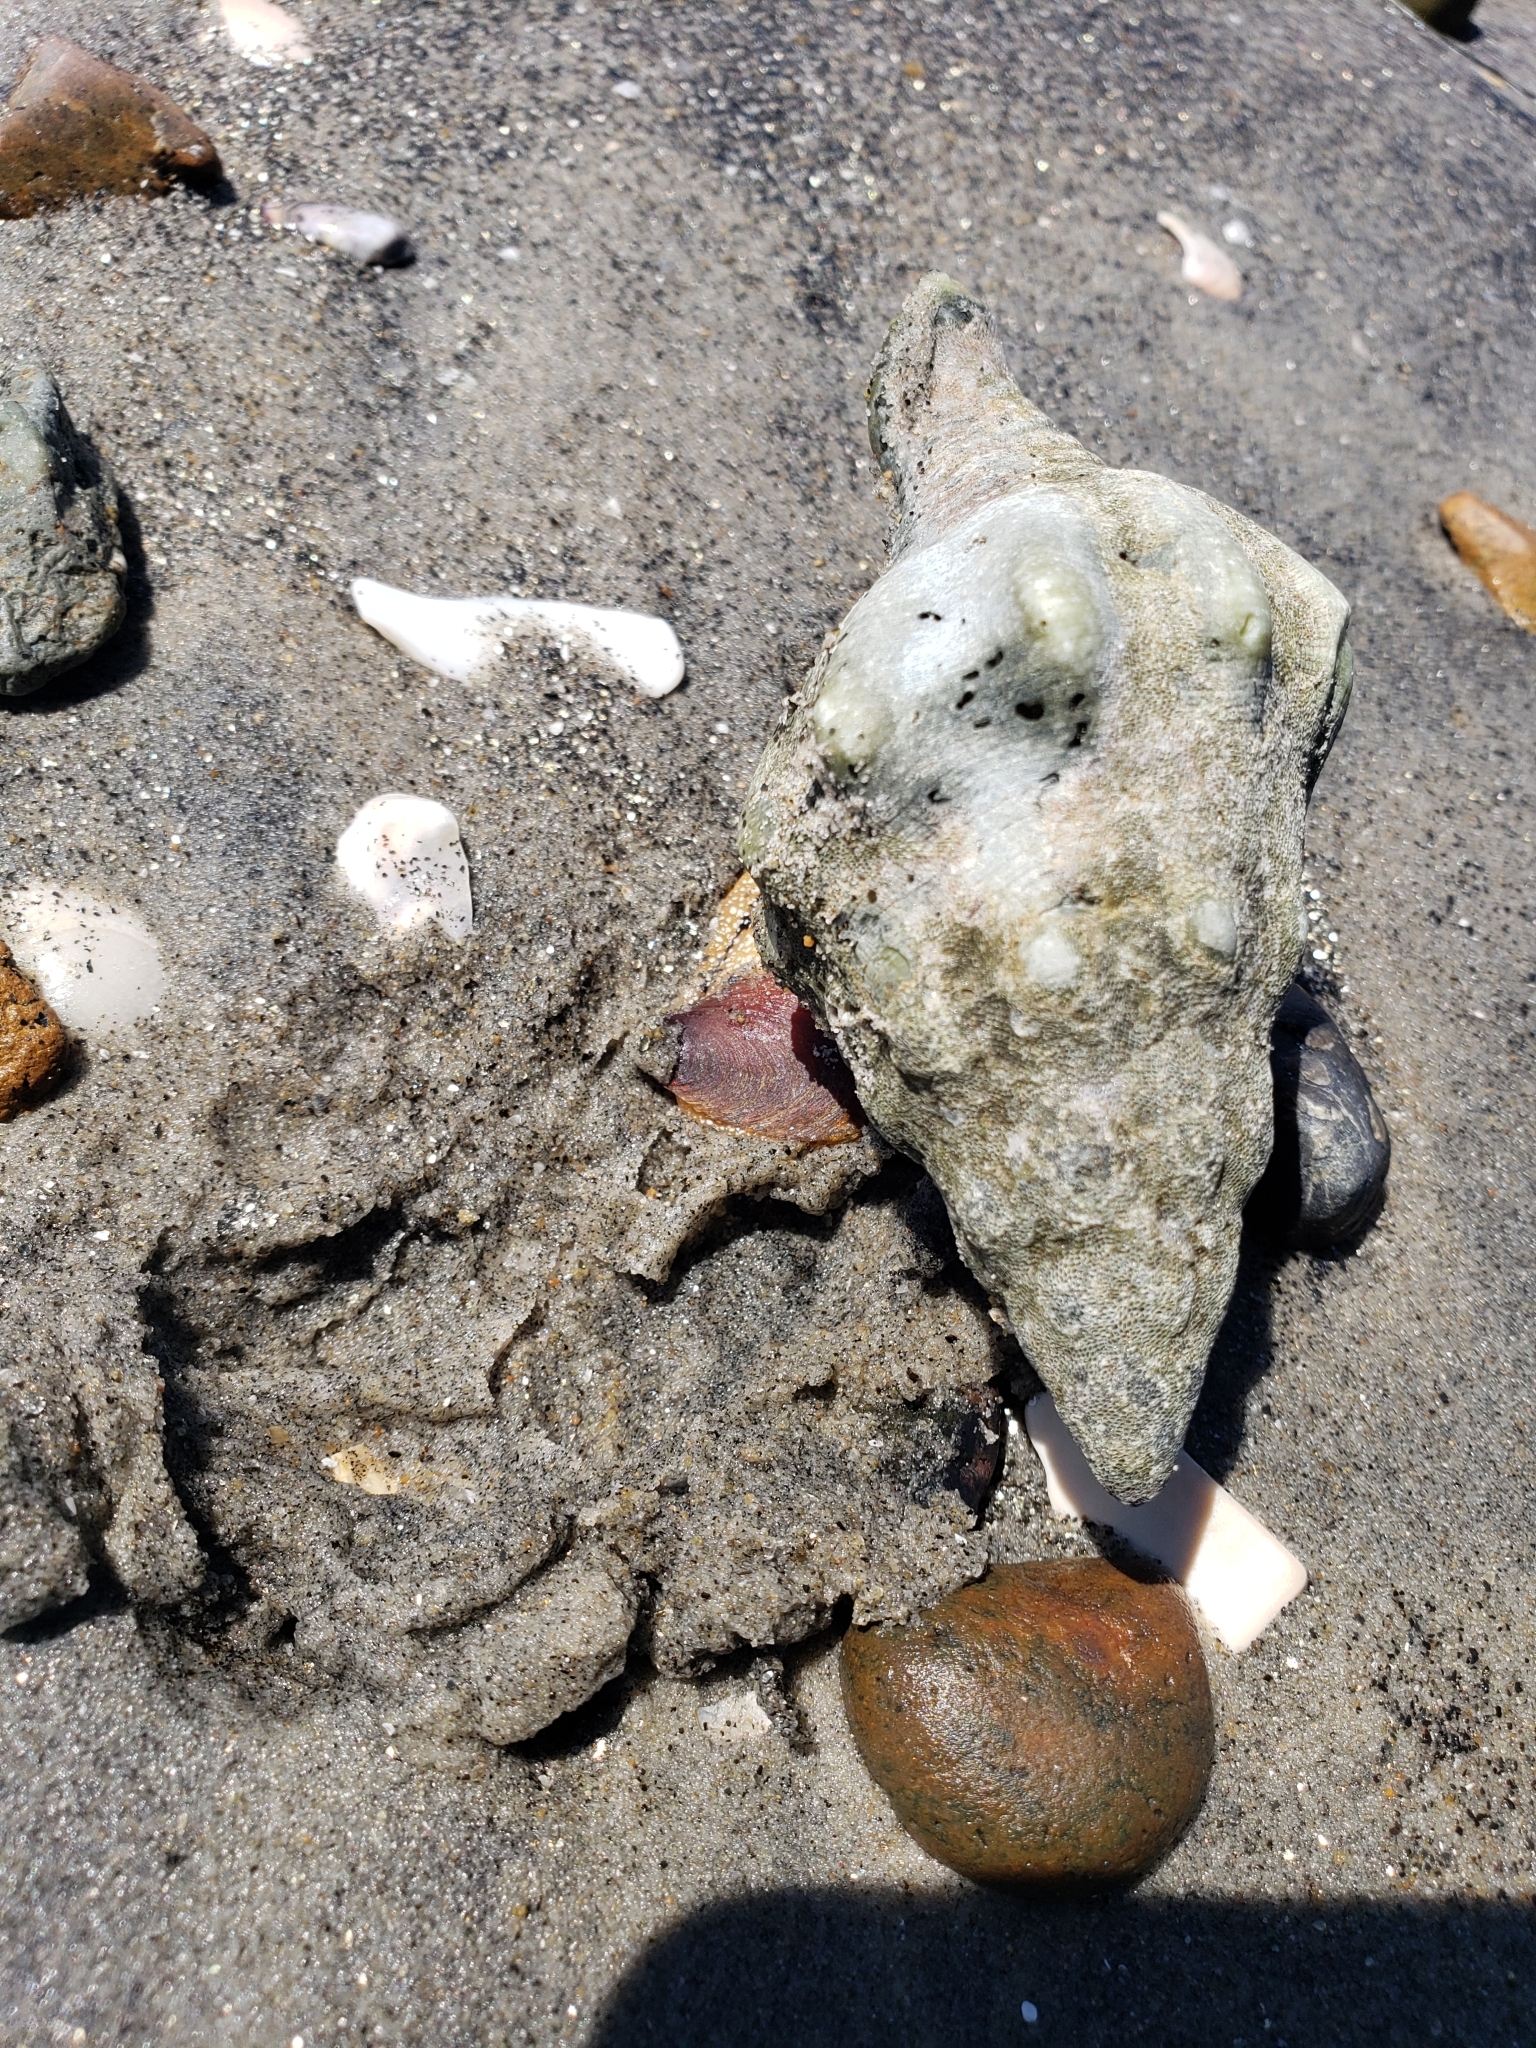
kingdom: Animalia
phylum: Mollusca
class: Gastropoda
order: Neogastropoda
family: Austrosiphonidae
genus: Kelletia
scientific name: Kelletia kelletii
